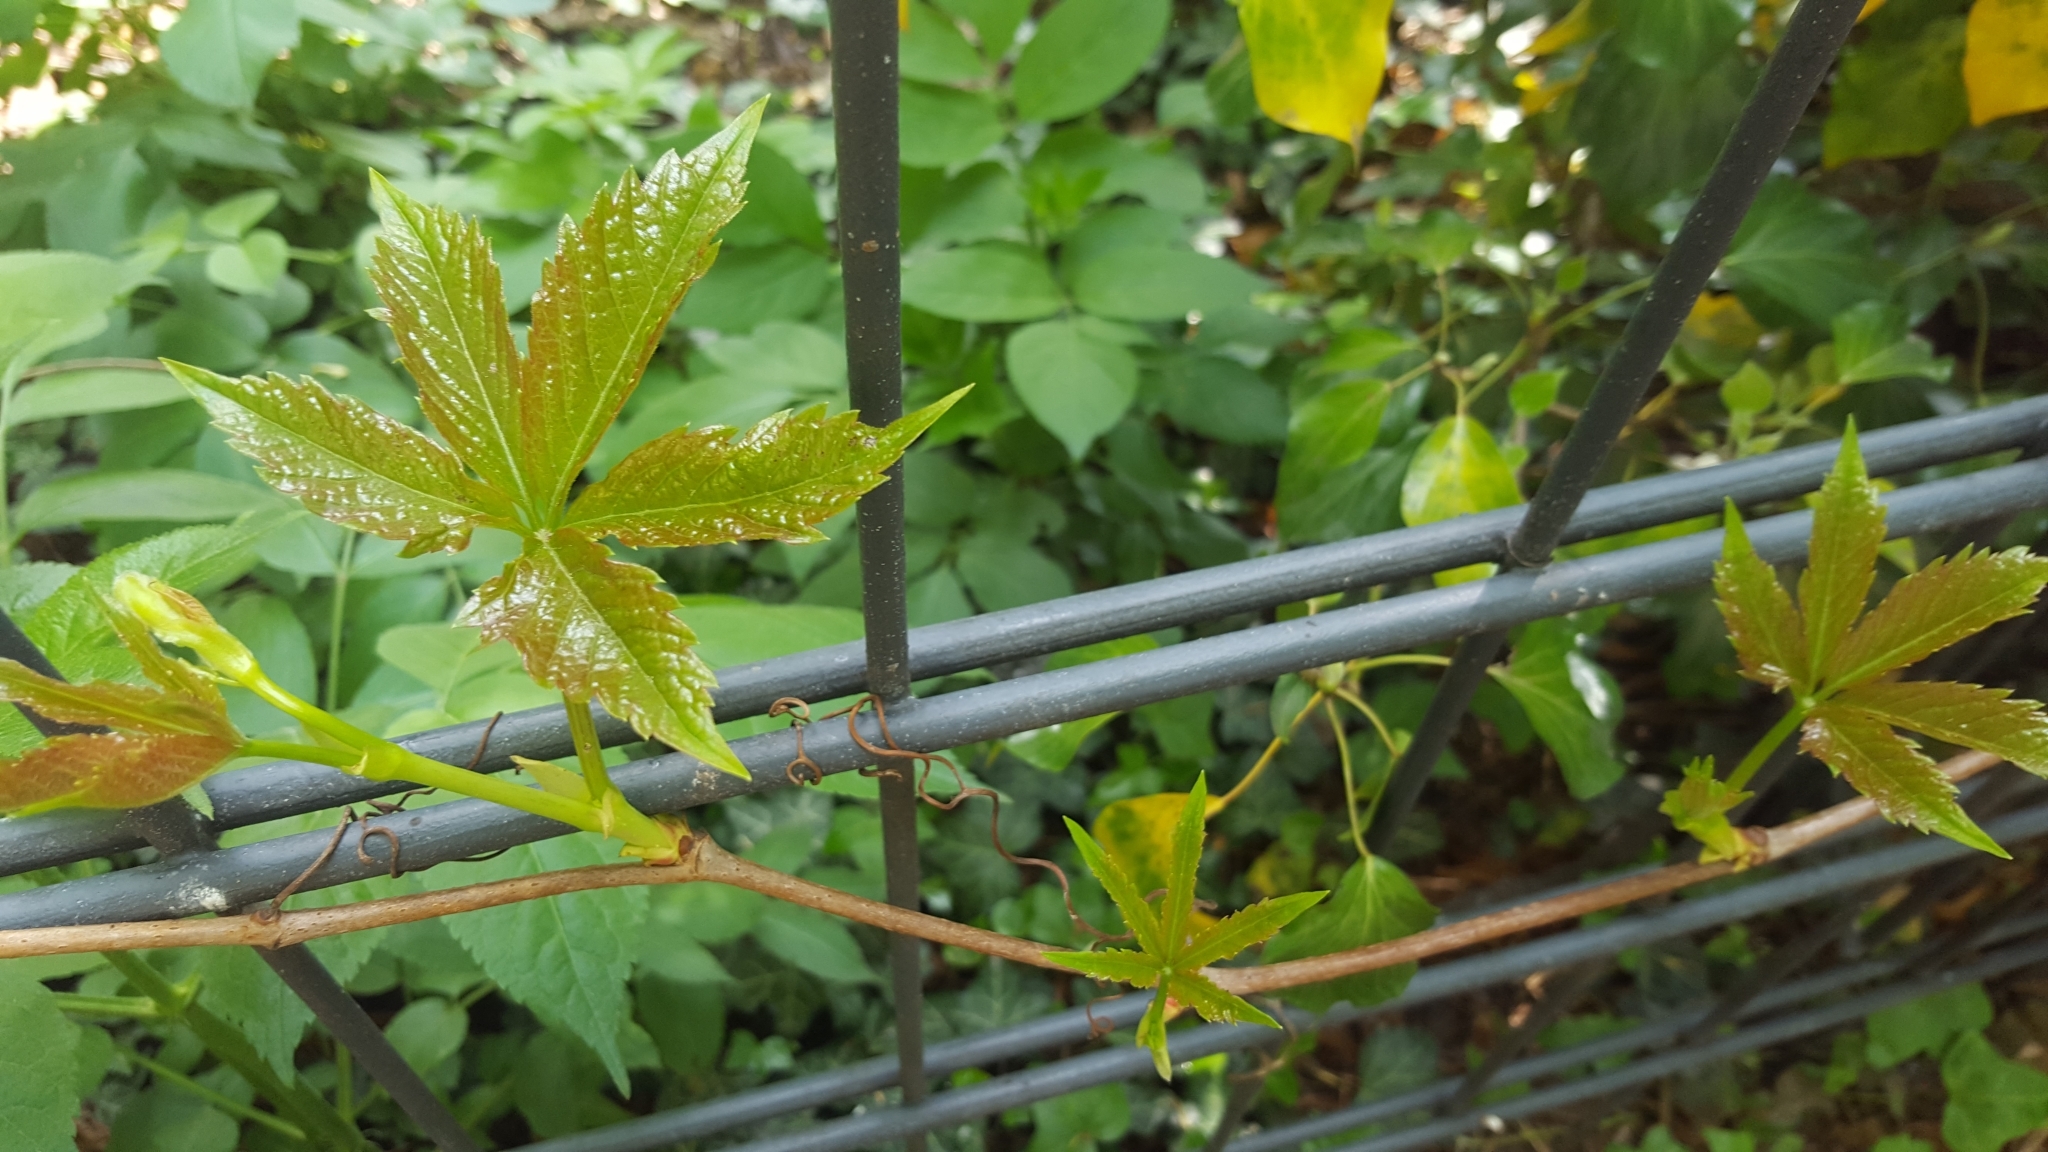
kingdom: Plantae
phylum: Tracheophyta
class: Magnoliopsida
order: Vitales
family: Vitaceae
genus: Parthenocissus
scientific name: Parthenocissus inserta
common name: False virginia-creeper
